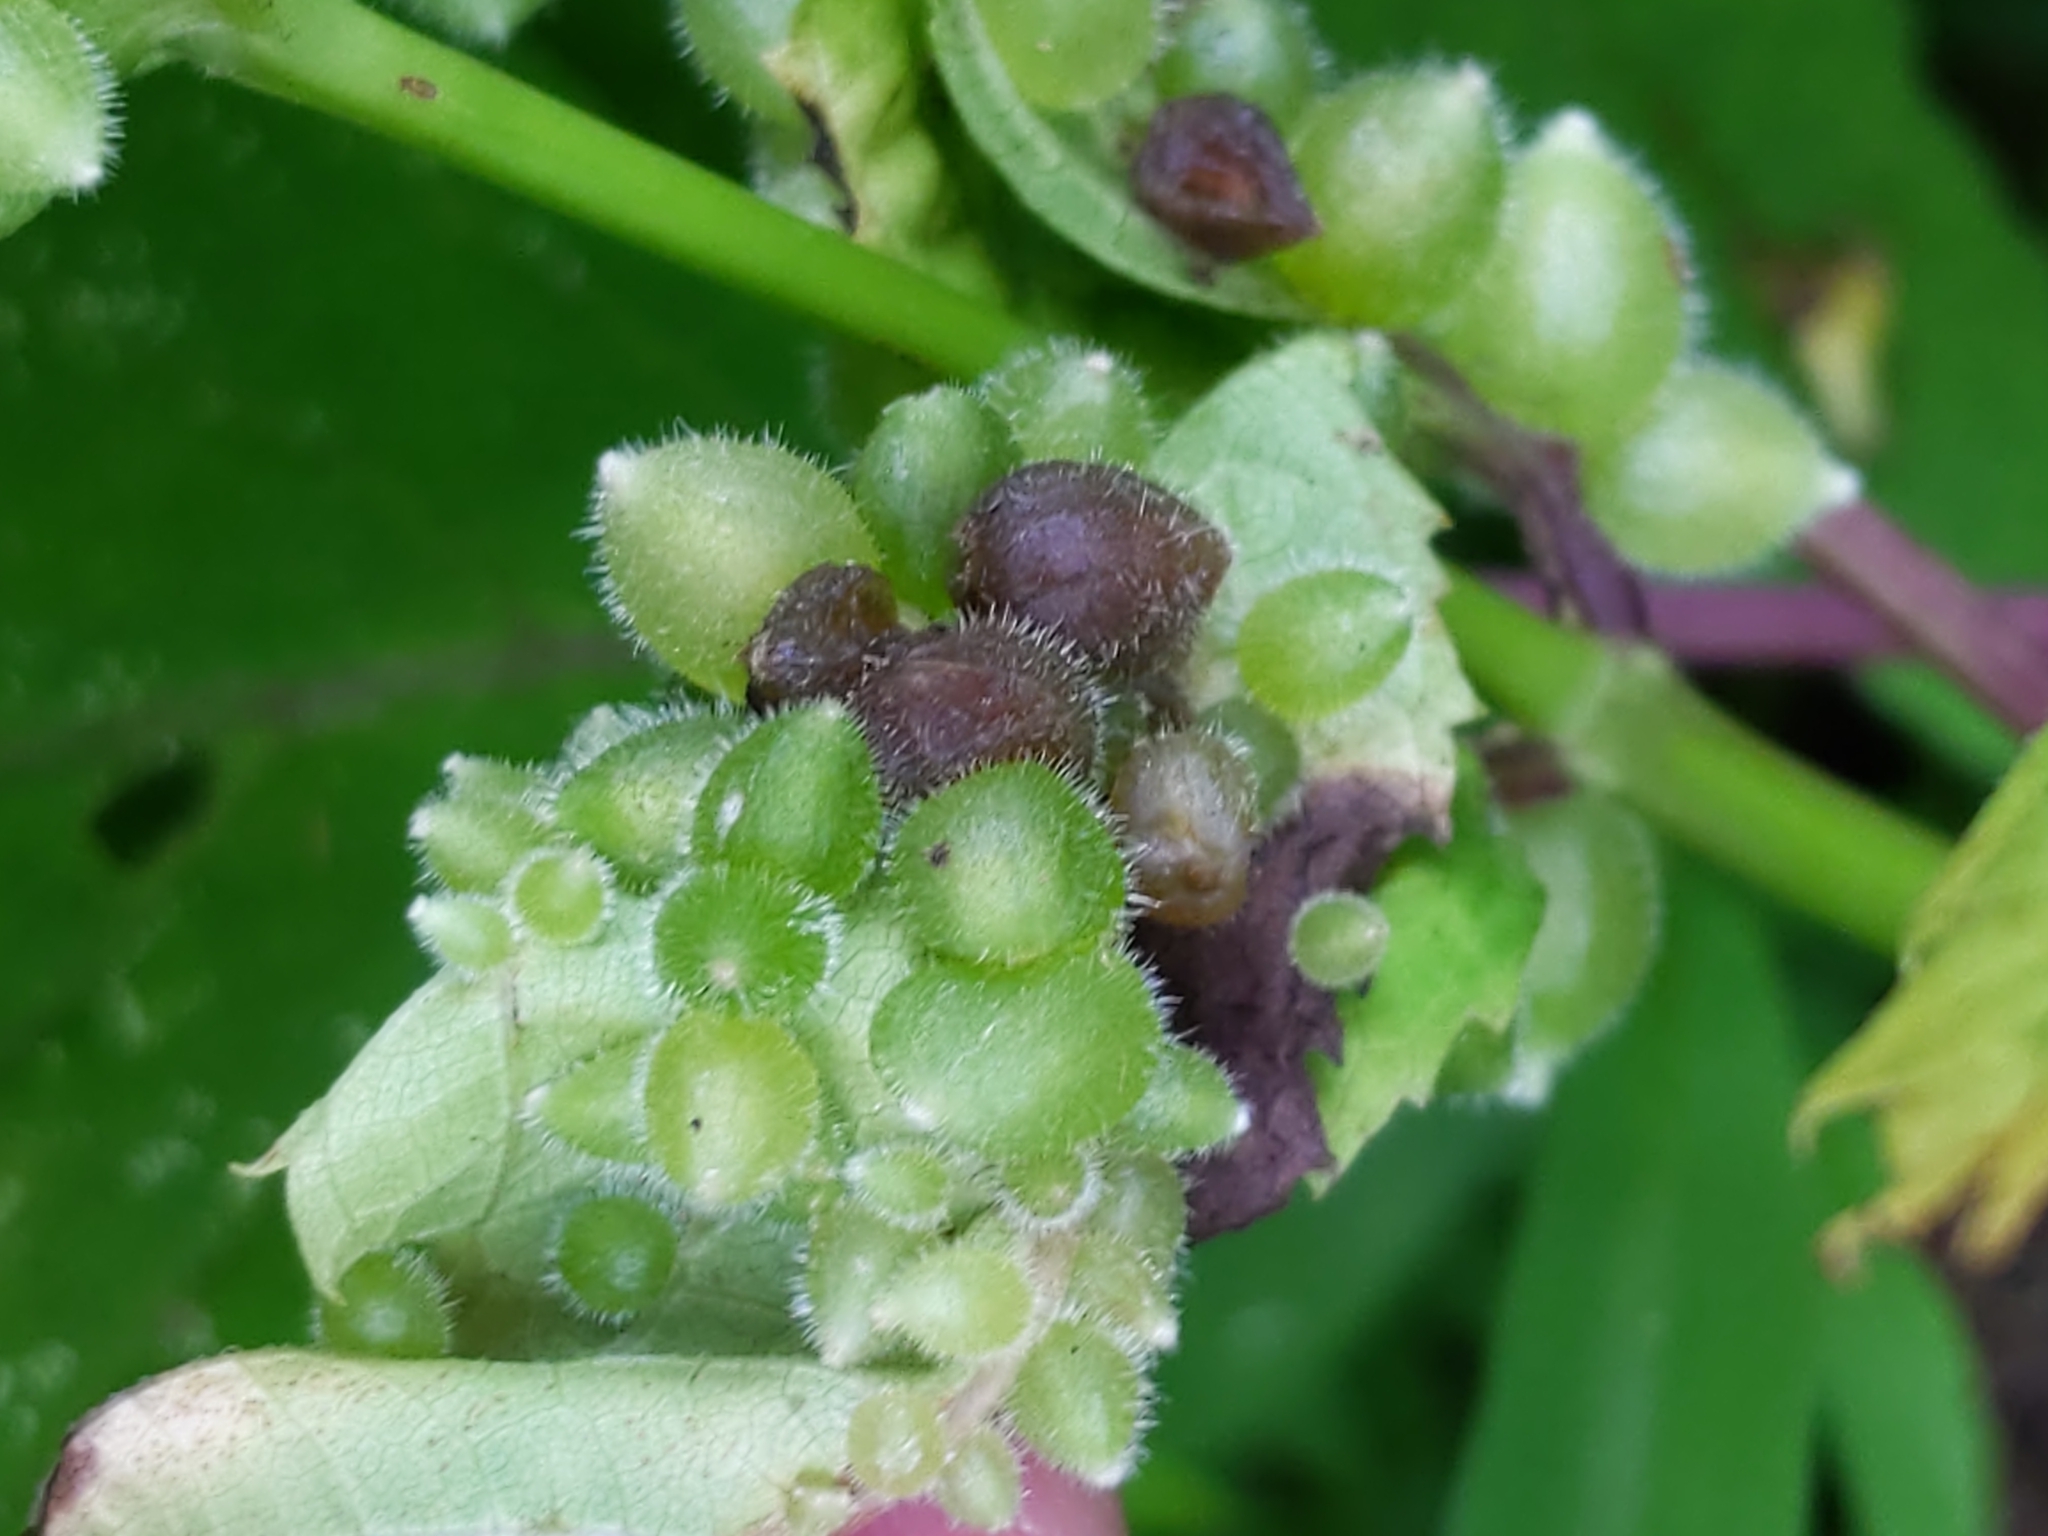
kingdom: Animalia
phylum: Arthropoda
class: Insecta
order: Diptera
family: Cecidomyiidae
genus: Dasineura
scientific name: Dasineura collinsoniae
